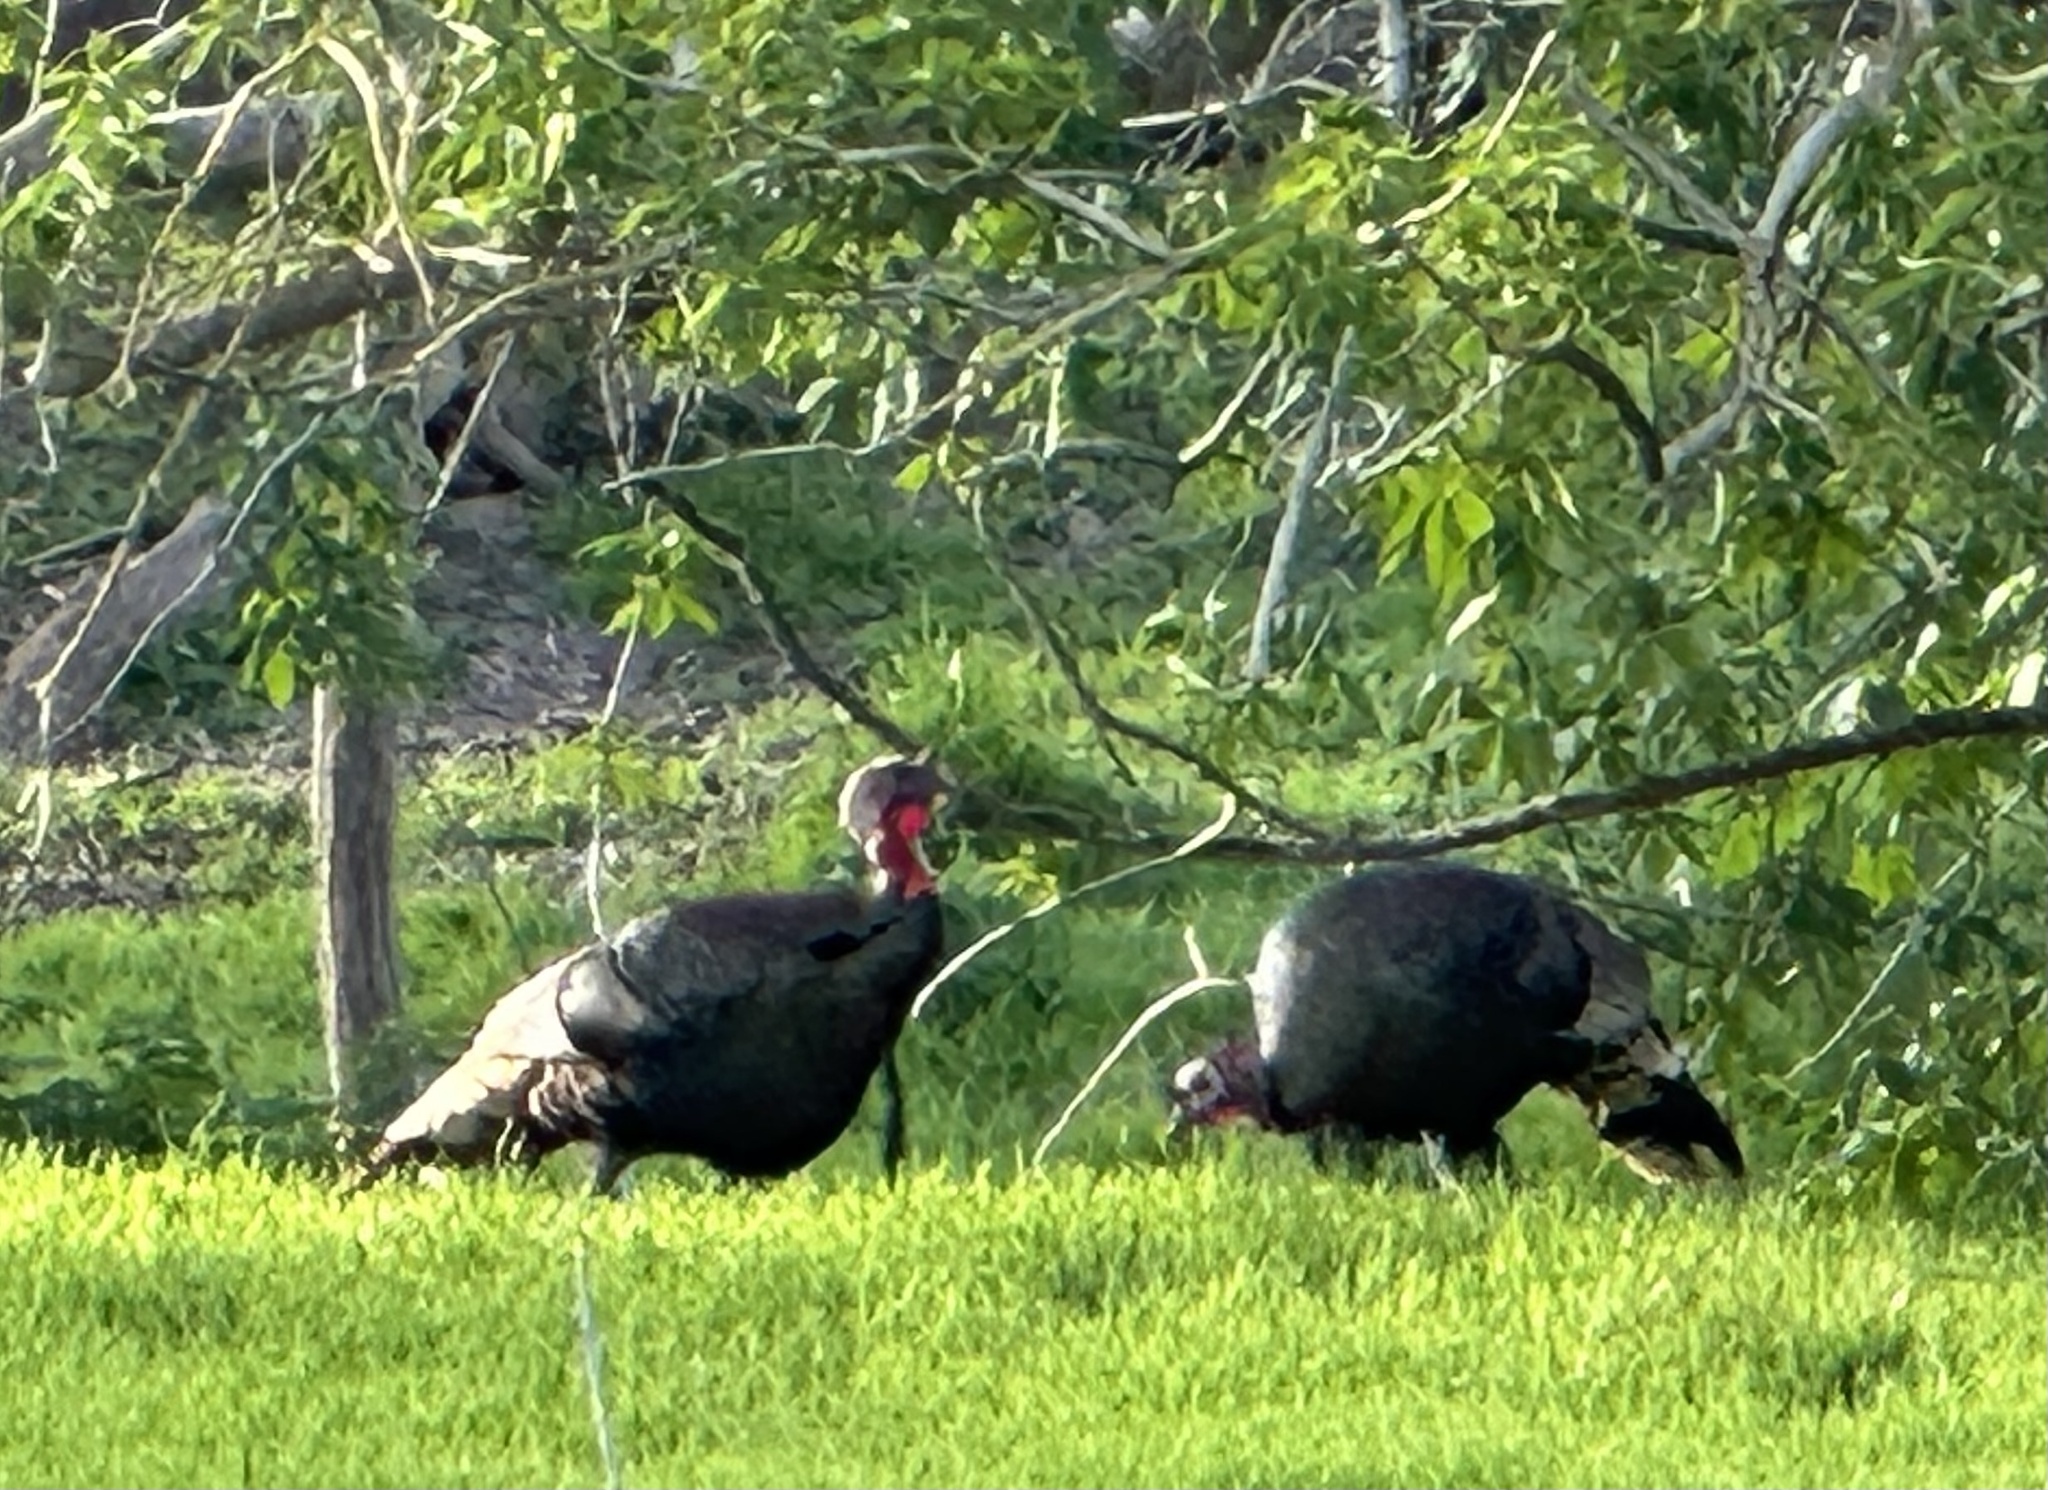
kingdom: Animalia
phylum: Chordata
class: Aves
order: Galliformes
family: Phasianidae
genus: Meleagris
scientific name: Meleagris gallopavo
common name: Wild turkey
